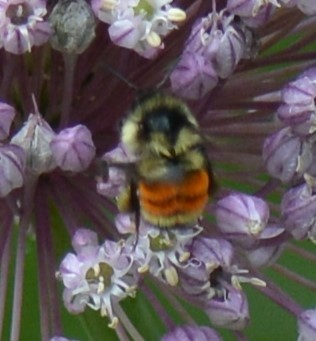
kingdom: Animalia
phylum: Arthropoda
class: Insecta
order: Hymenoptera
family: Apidae
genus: Bombus
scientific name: Bombus ternarius
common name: Tri-colored bumble bee
